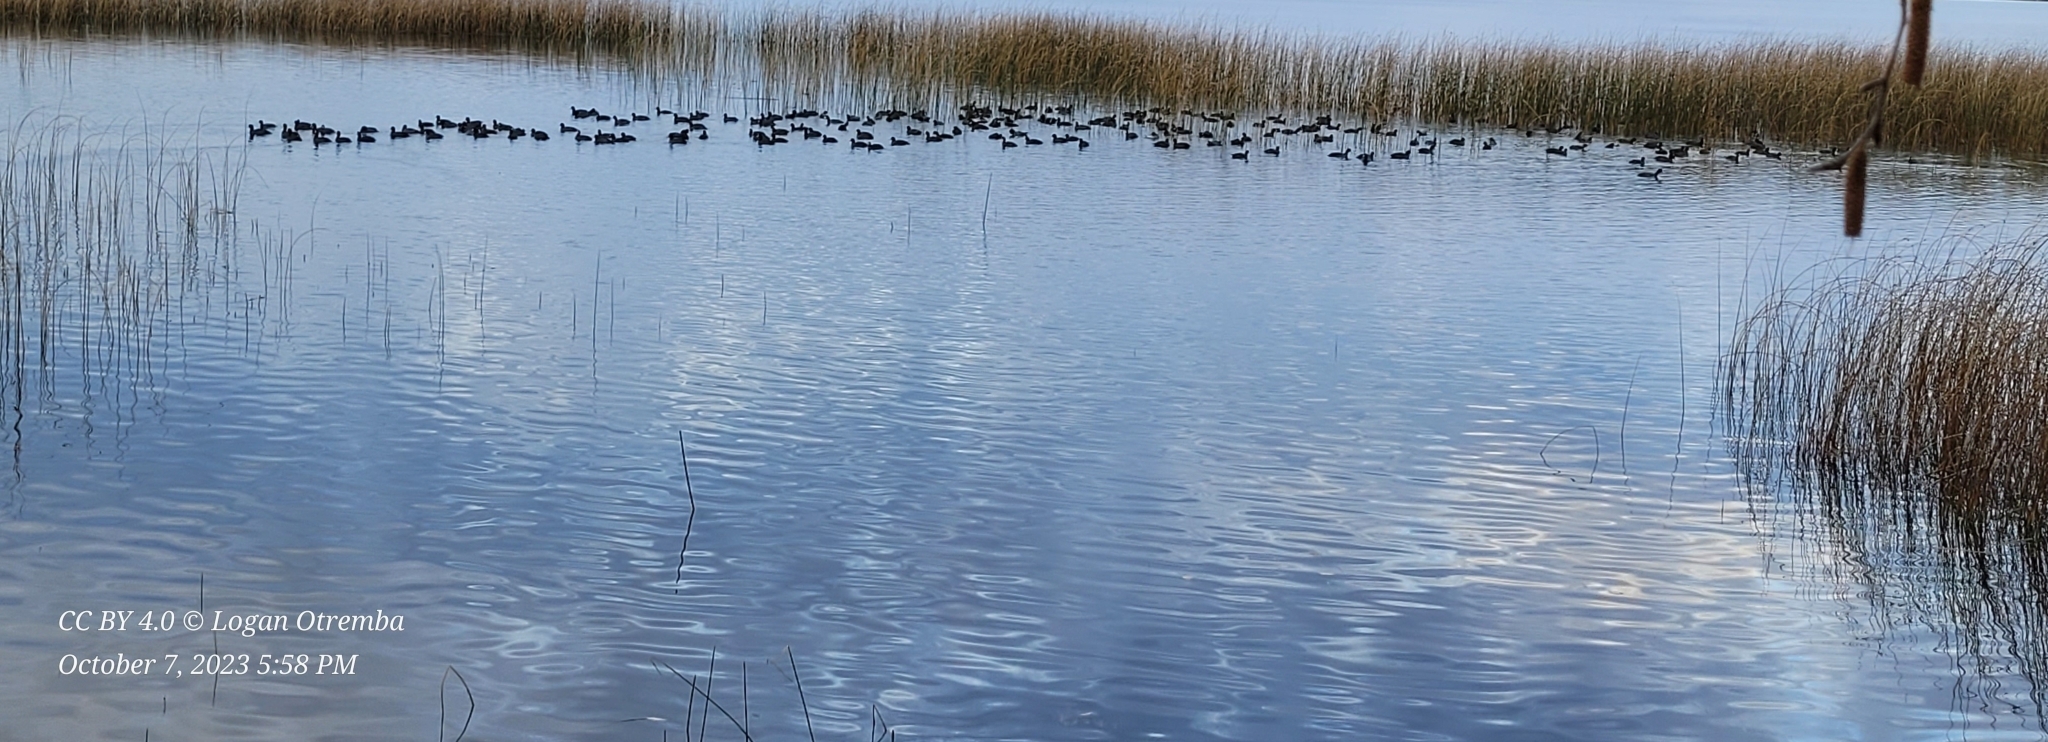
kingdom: Animalia
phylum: Chordata
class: Aves
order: Gruiformes
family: Rallidae
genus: Fulica
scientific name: Fulica americana
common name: American coot
